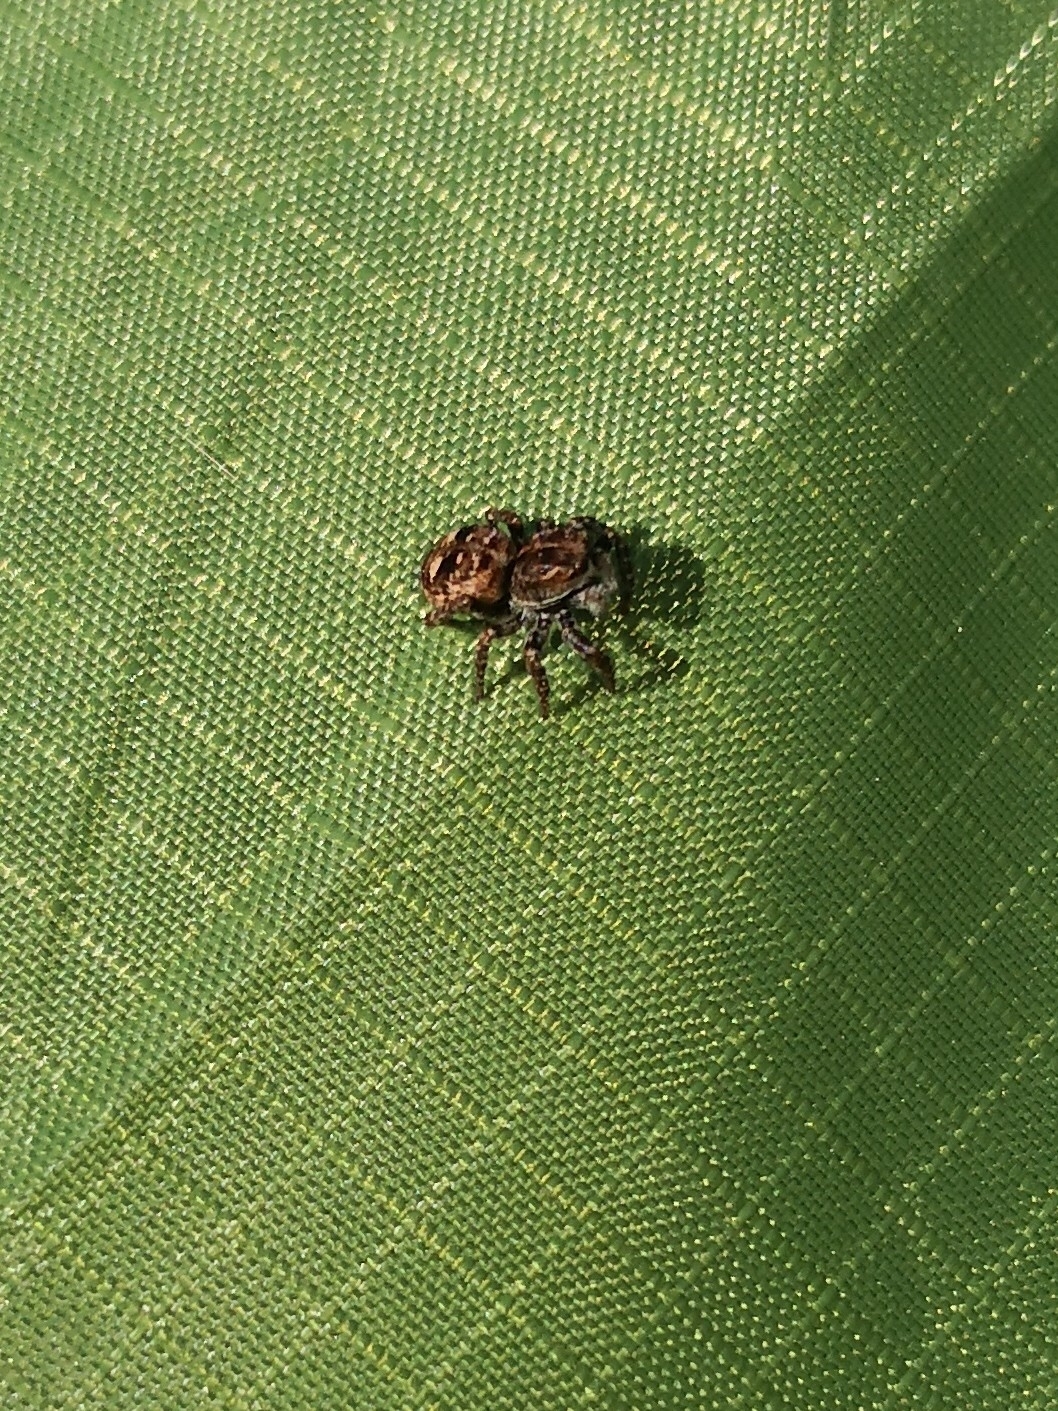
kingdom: Animalia
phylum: Arthropoda
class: Arachnida
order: Araneae
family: Salticidae
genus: Attulus
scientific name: Attulus floricola
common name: Flower jumping spider
